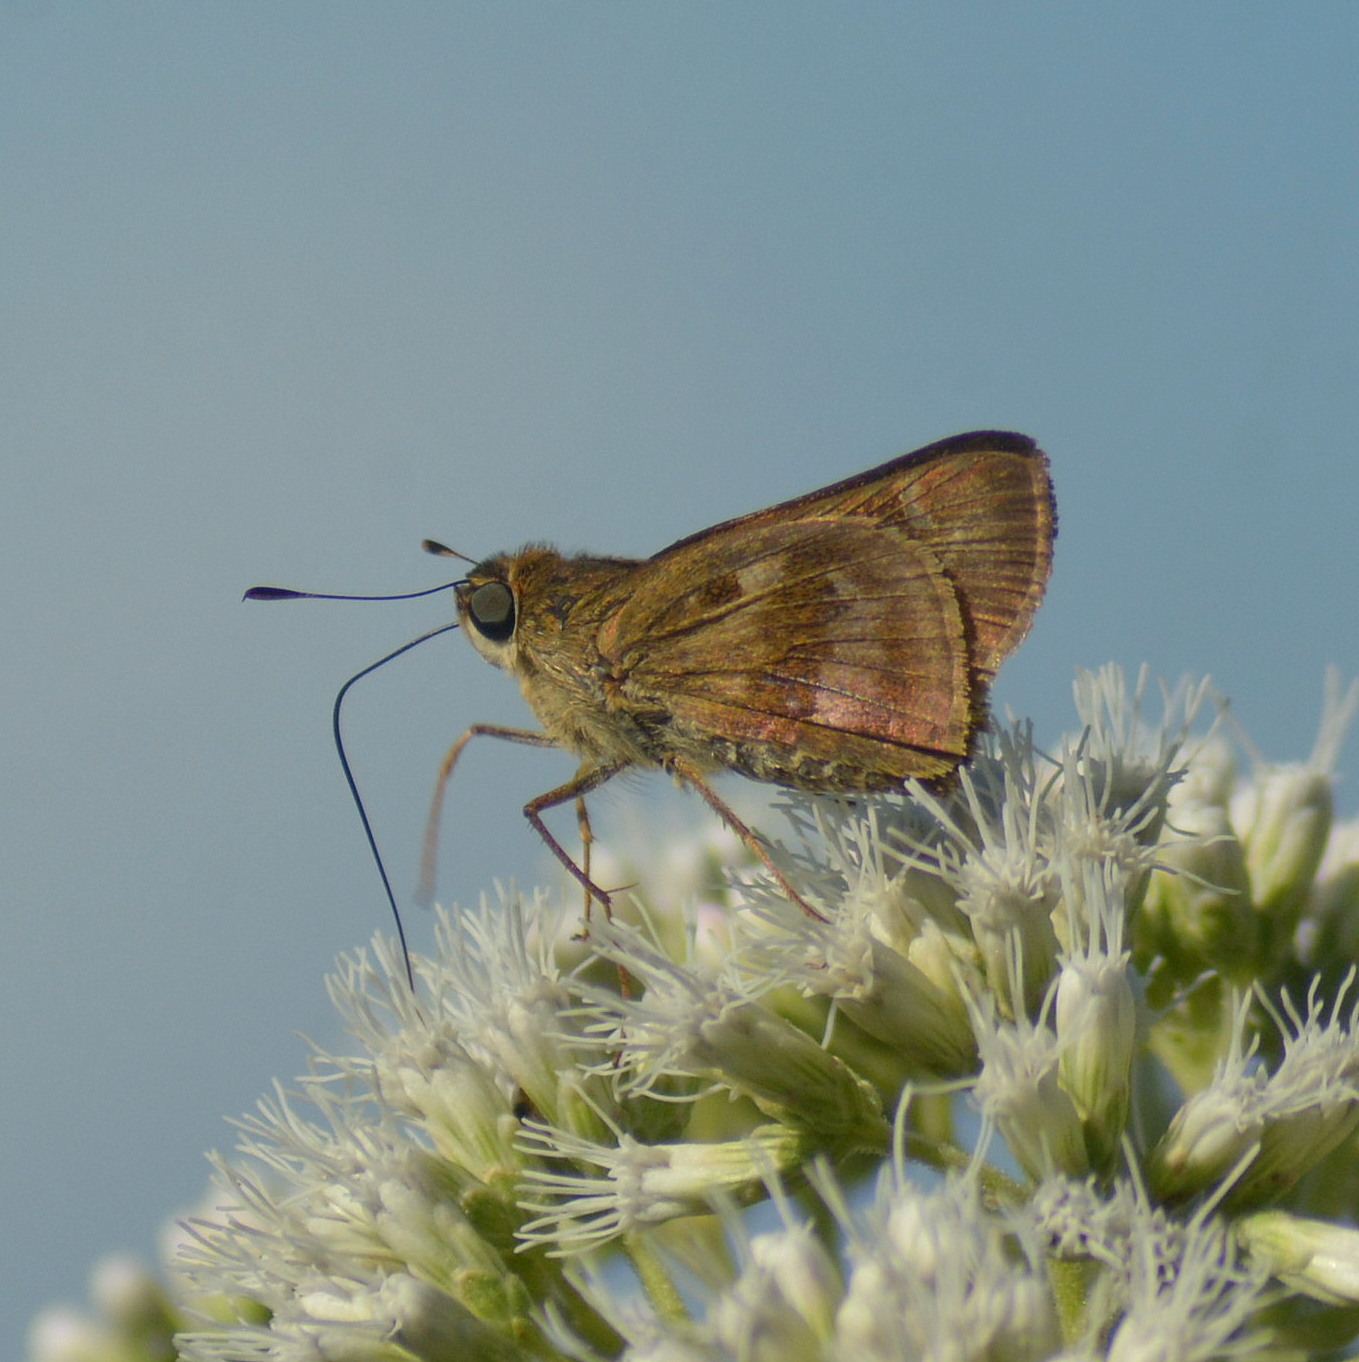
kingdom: Animalia
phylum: Arthropoda
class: Insecta
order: Lepidoptera
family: Hesperiidae
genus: Nyctelius
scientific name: Nyctelius nyctelius
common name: Violet-banded skipper
